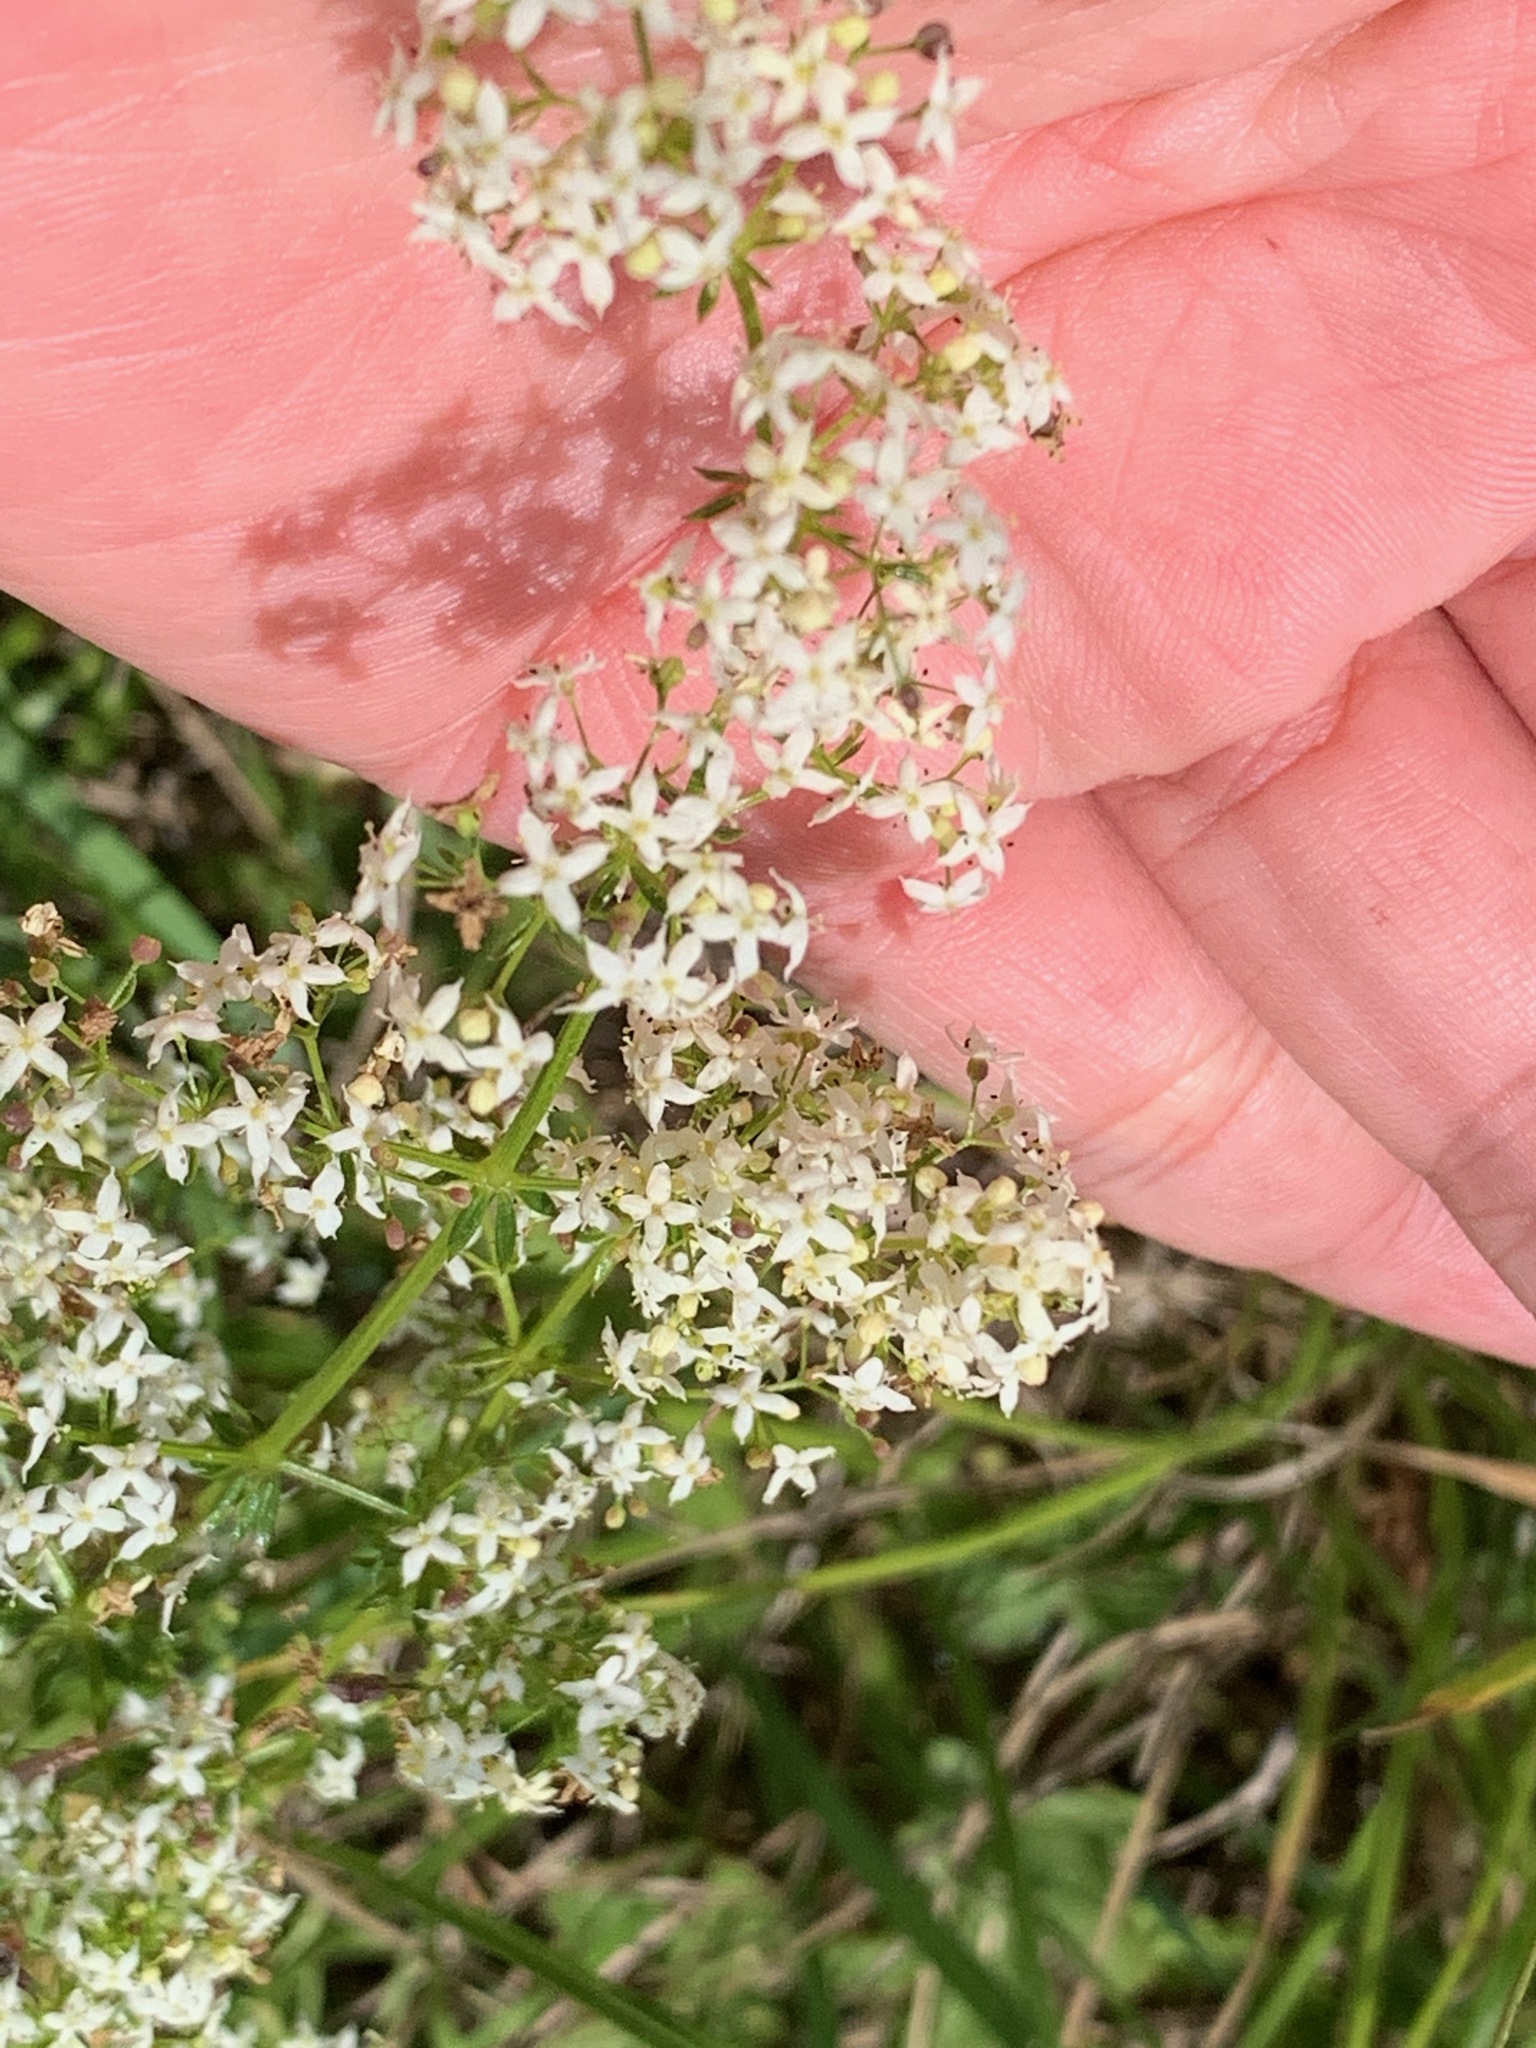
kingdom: Plantae
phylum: Tracheophyta
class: Magnoliopsida
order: Gentianales
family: Rubiaceae
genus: Galium
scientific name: Galium mollugo
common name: Hedge bedstraw
